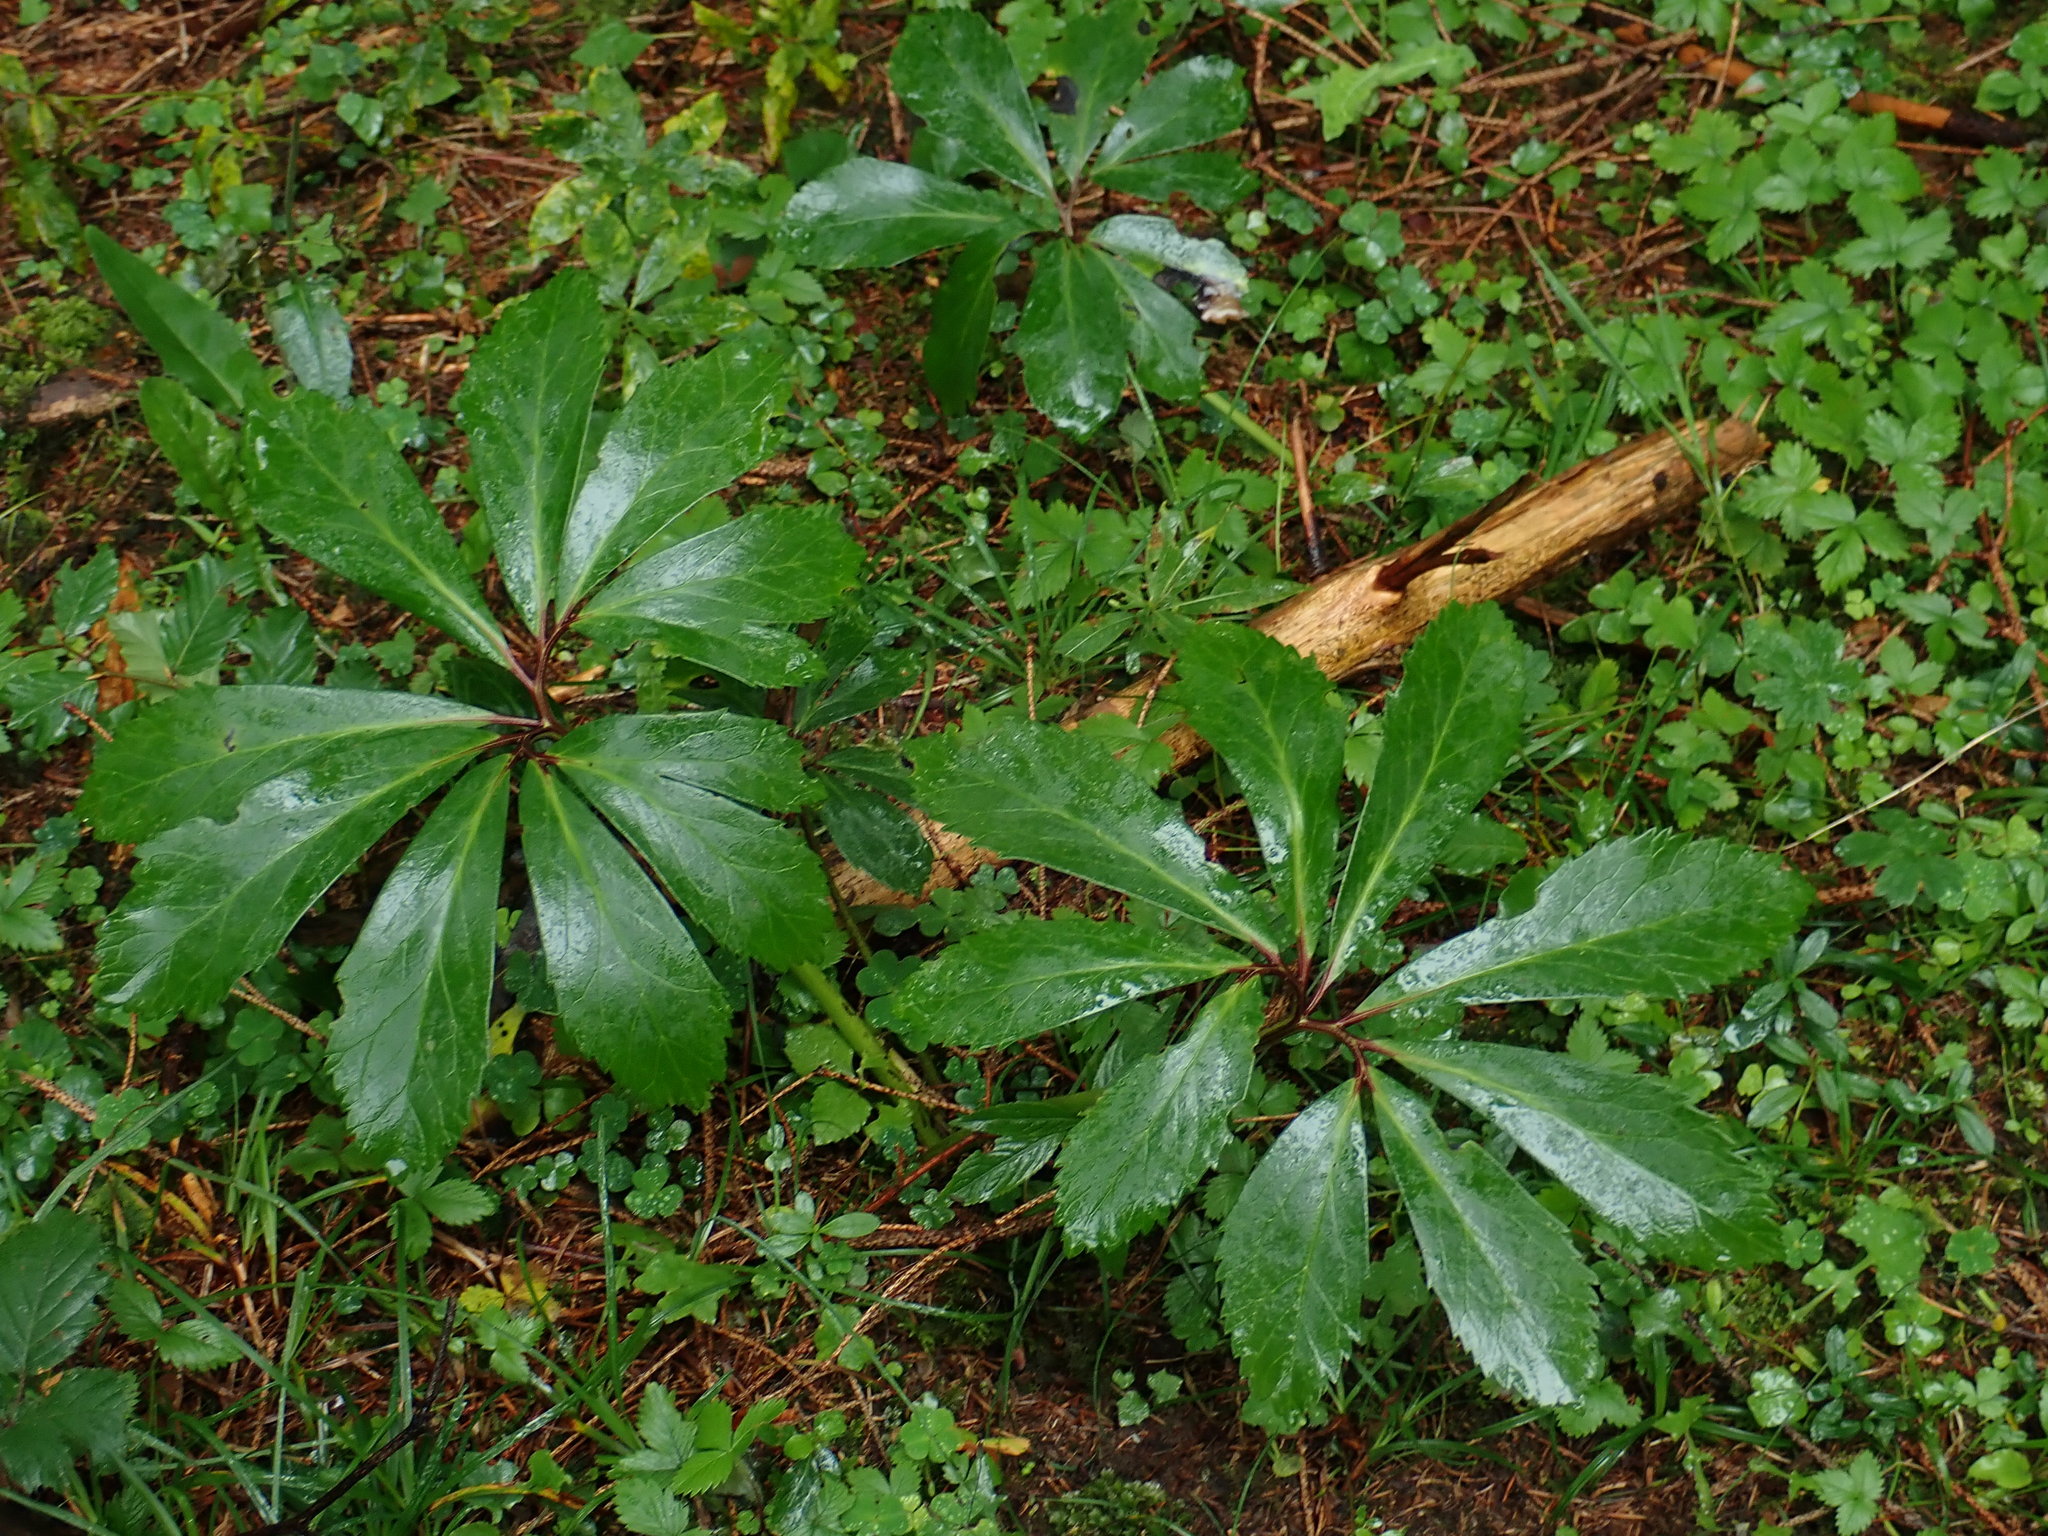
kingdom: Plantae
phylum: Tracheophyta
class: Magnoliopsida
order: Ranunculales
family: Ranunculaceae
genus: Helleborus
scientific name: Helleborus niger
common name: Black hellebore
